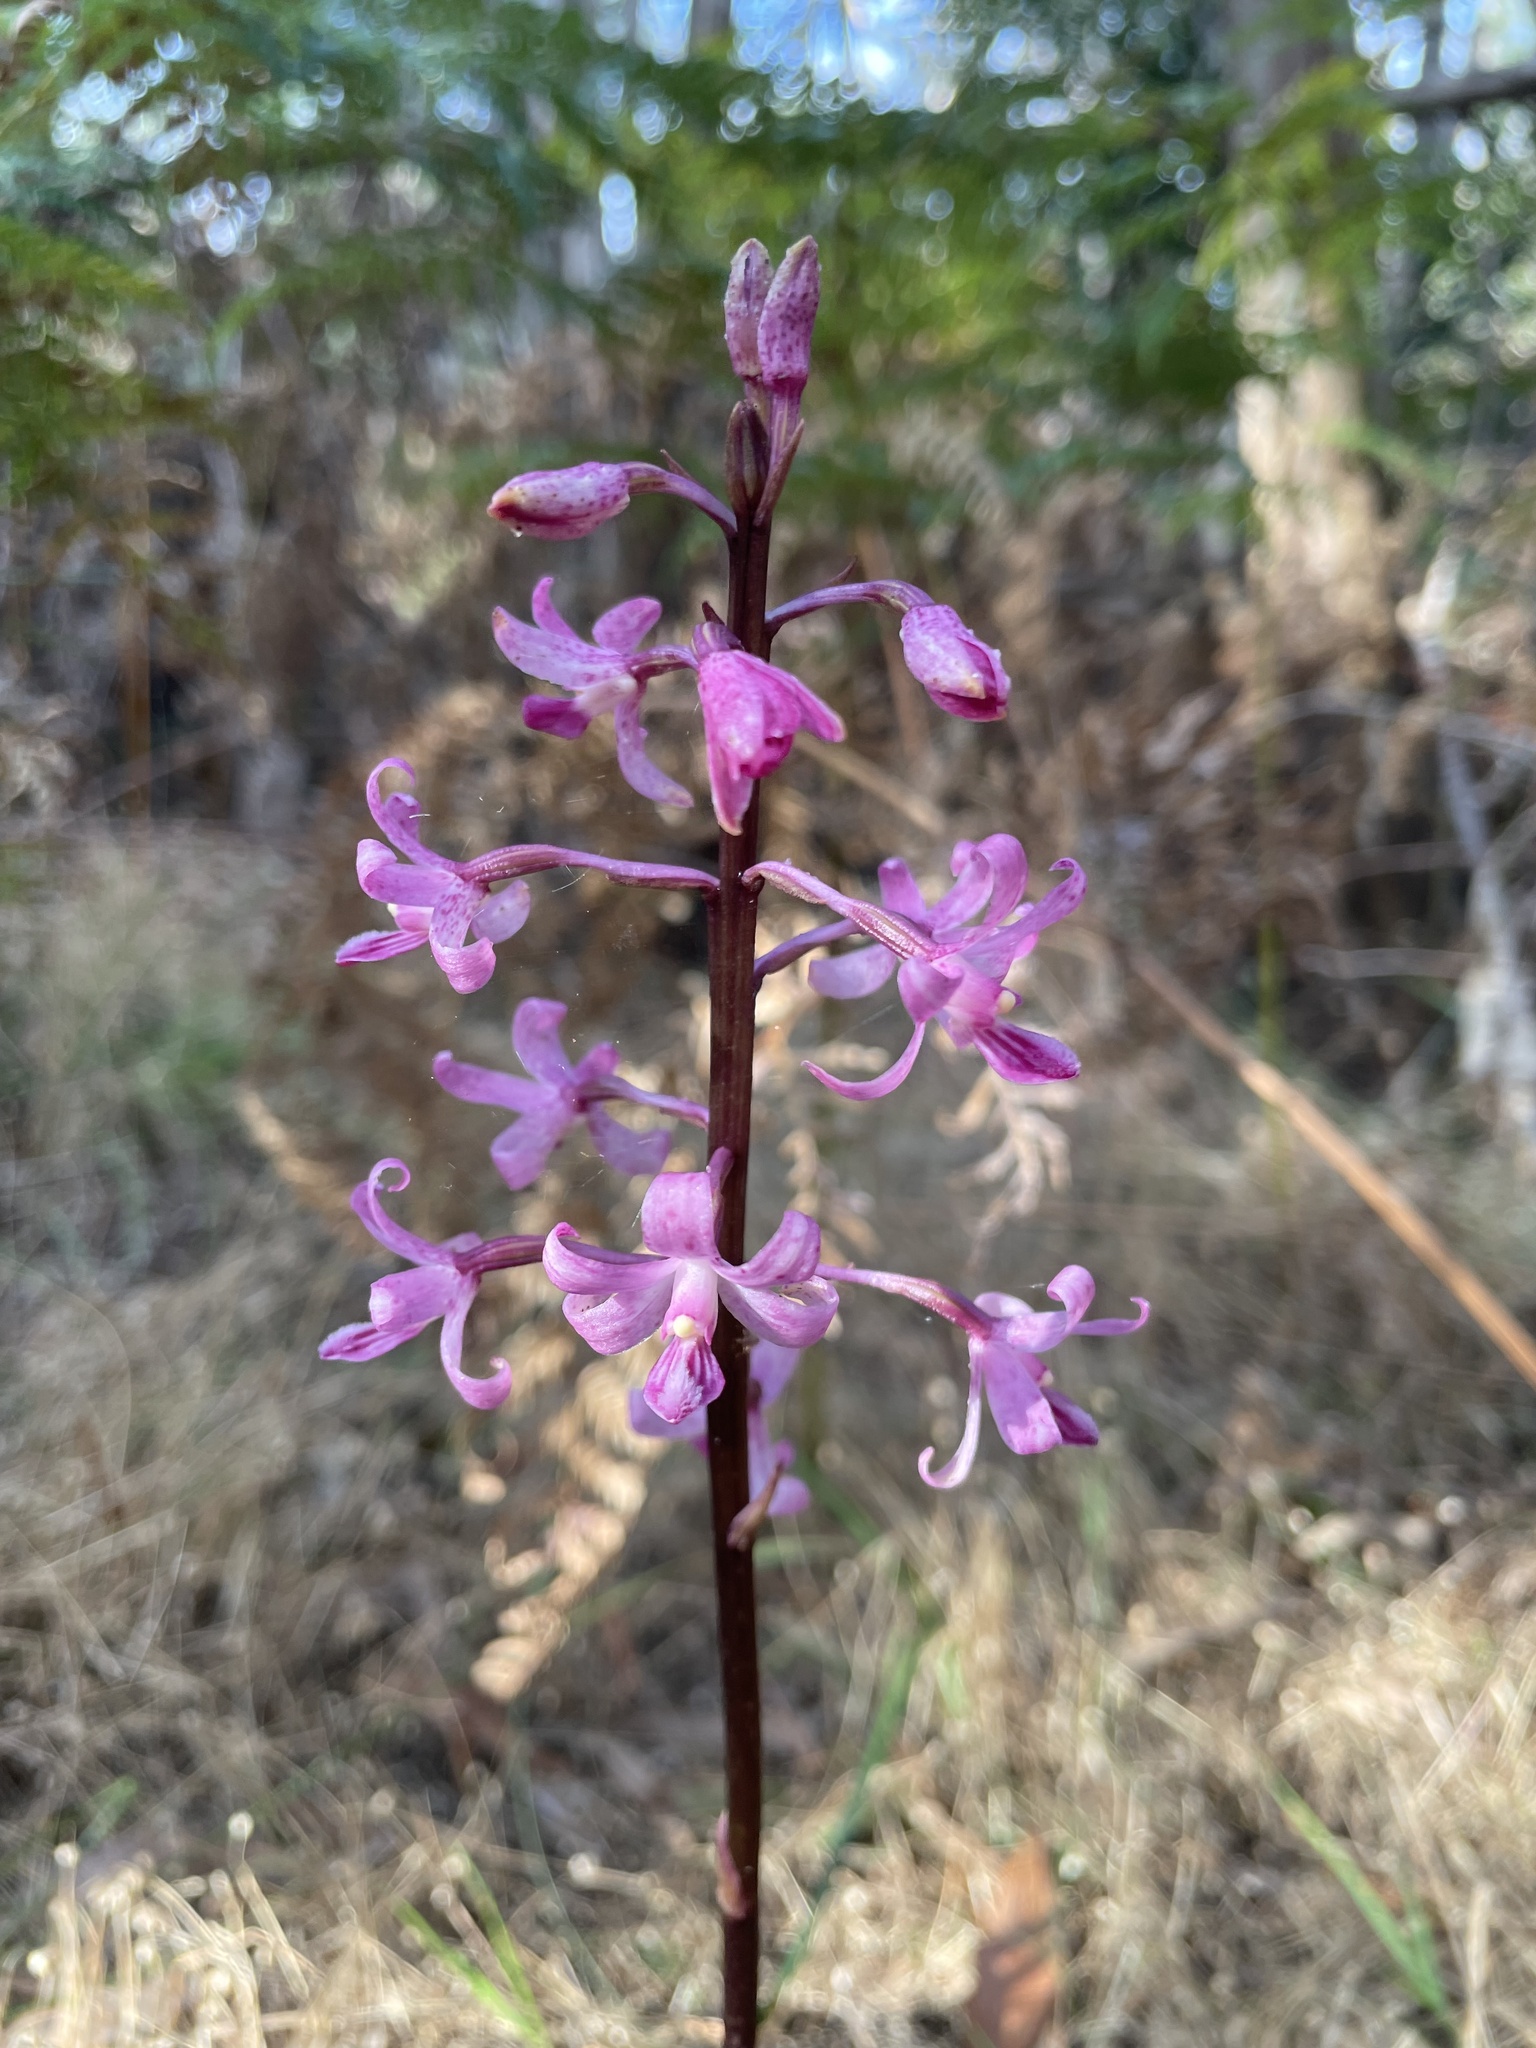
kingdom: Plantae
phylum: Tracheophyta
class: Liliopsida
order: Asparagales
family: Orchidaceae
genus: Dipodium
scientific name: Dipodium roseum
